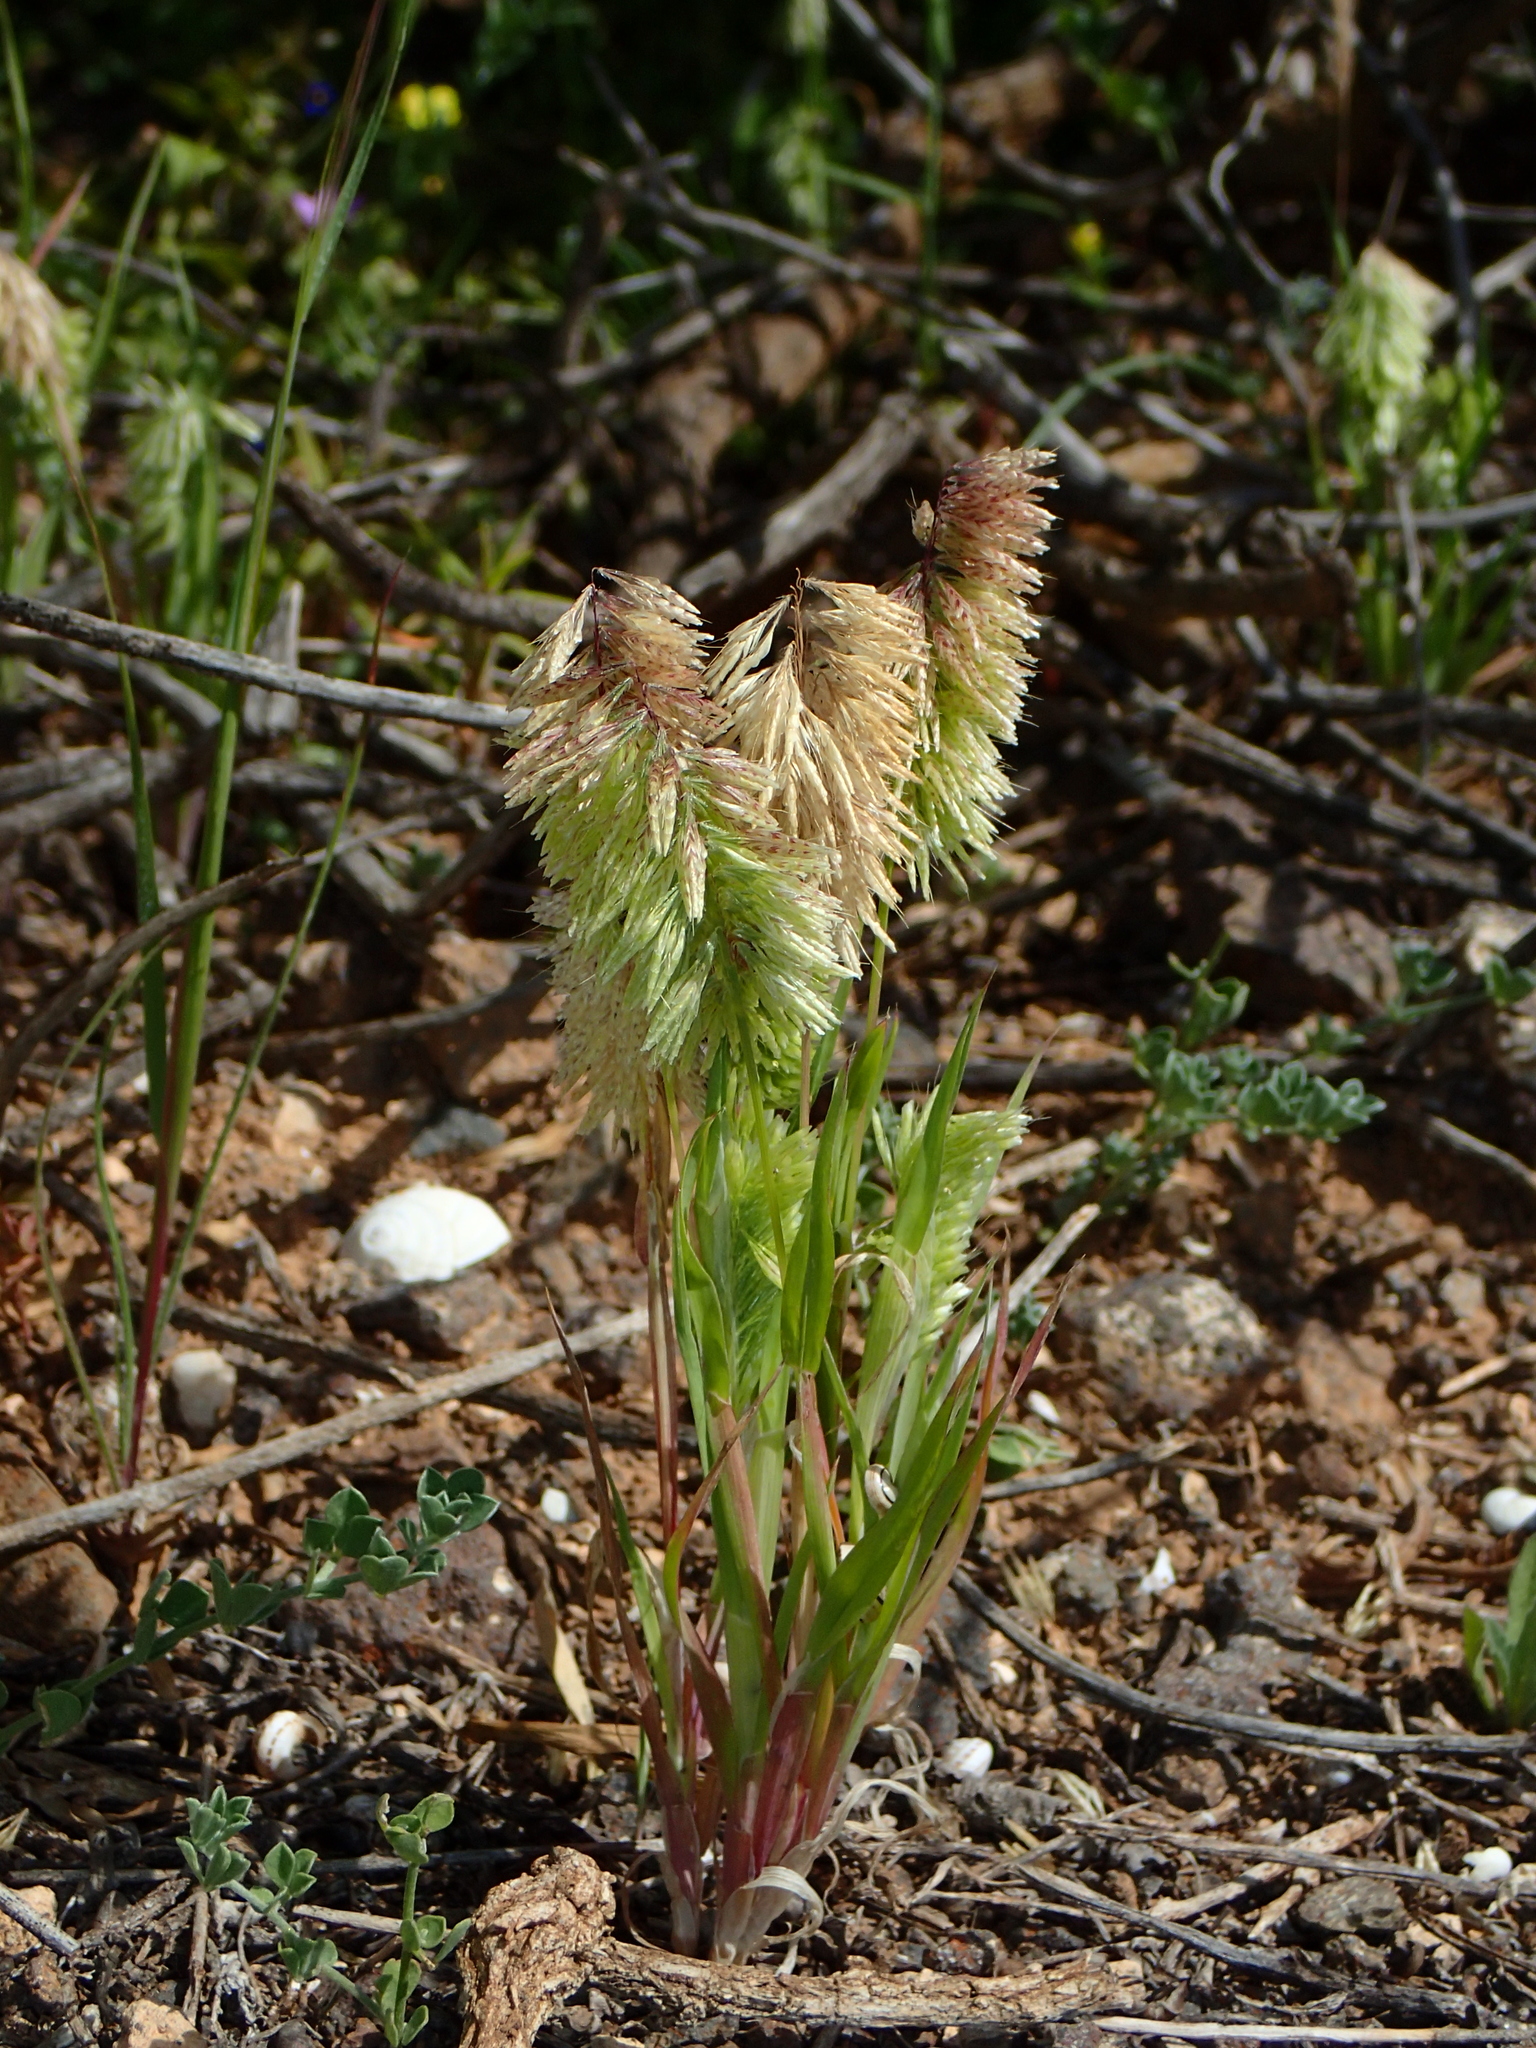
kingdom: Plantae
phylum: Tracheophyta
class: Liliopsida
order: Poales
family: Poaceae
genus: Lamarckia
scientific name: Lamarckia aurea
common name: Golden dog's-tail
